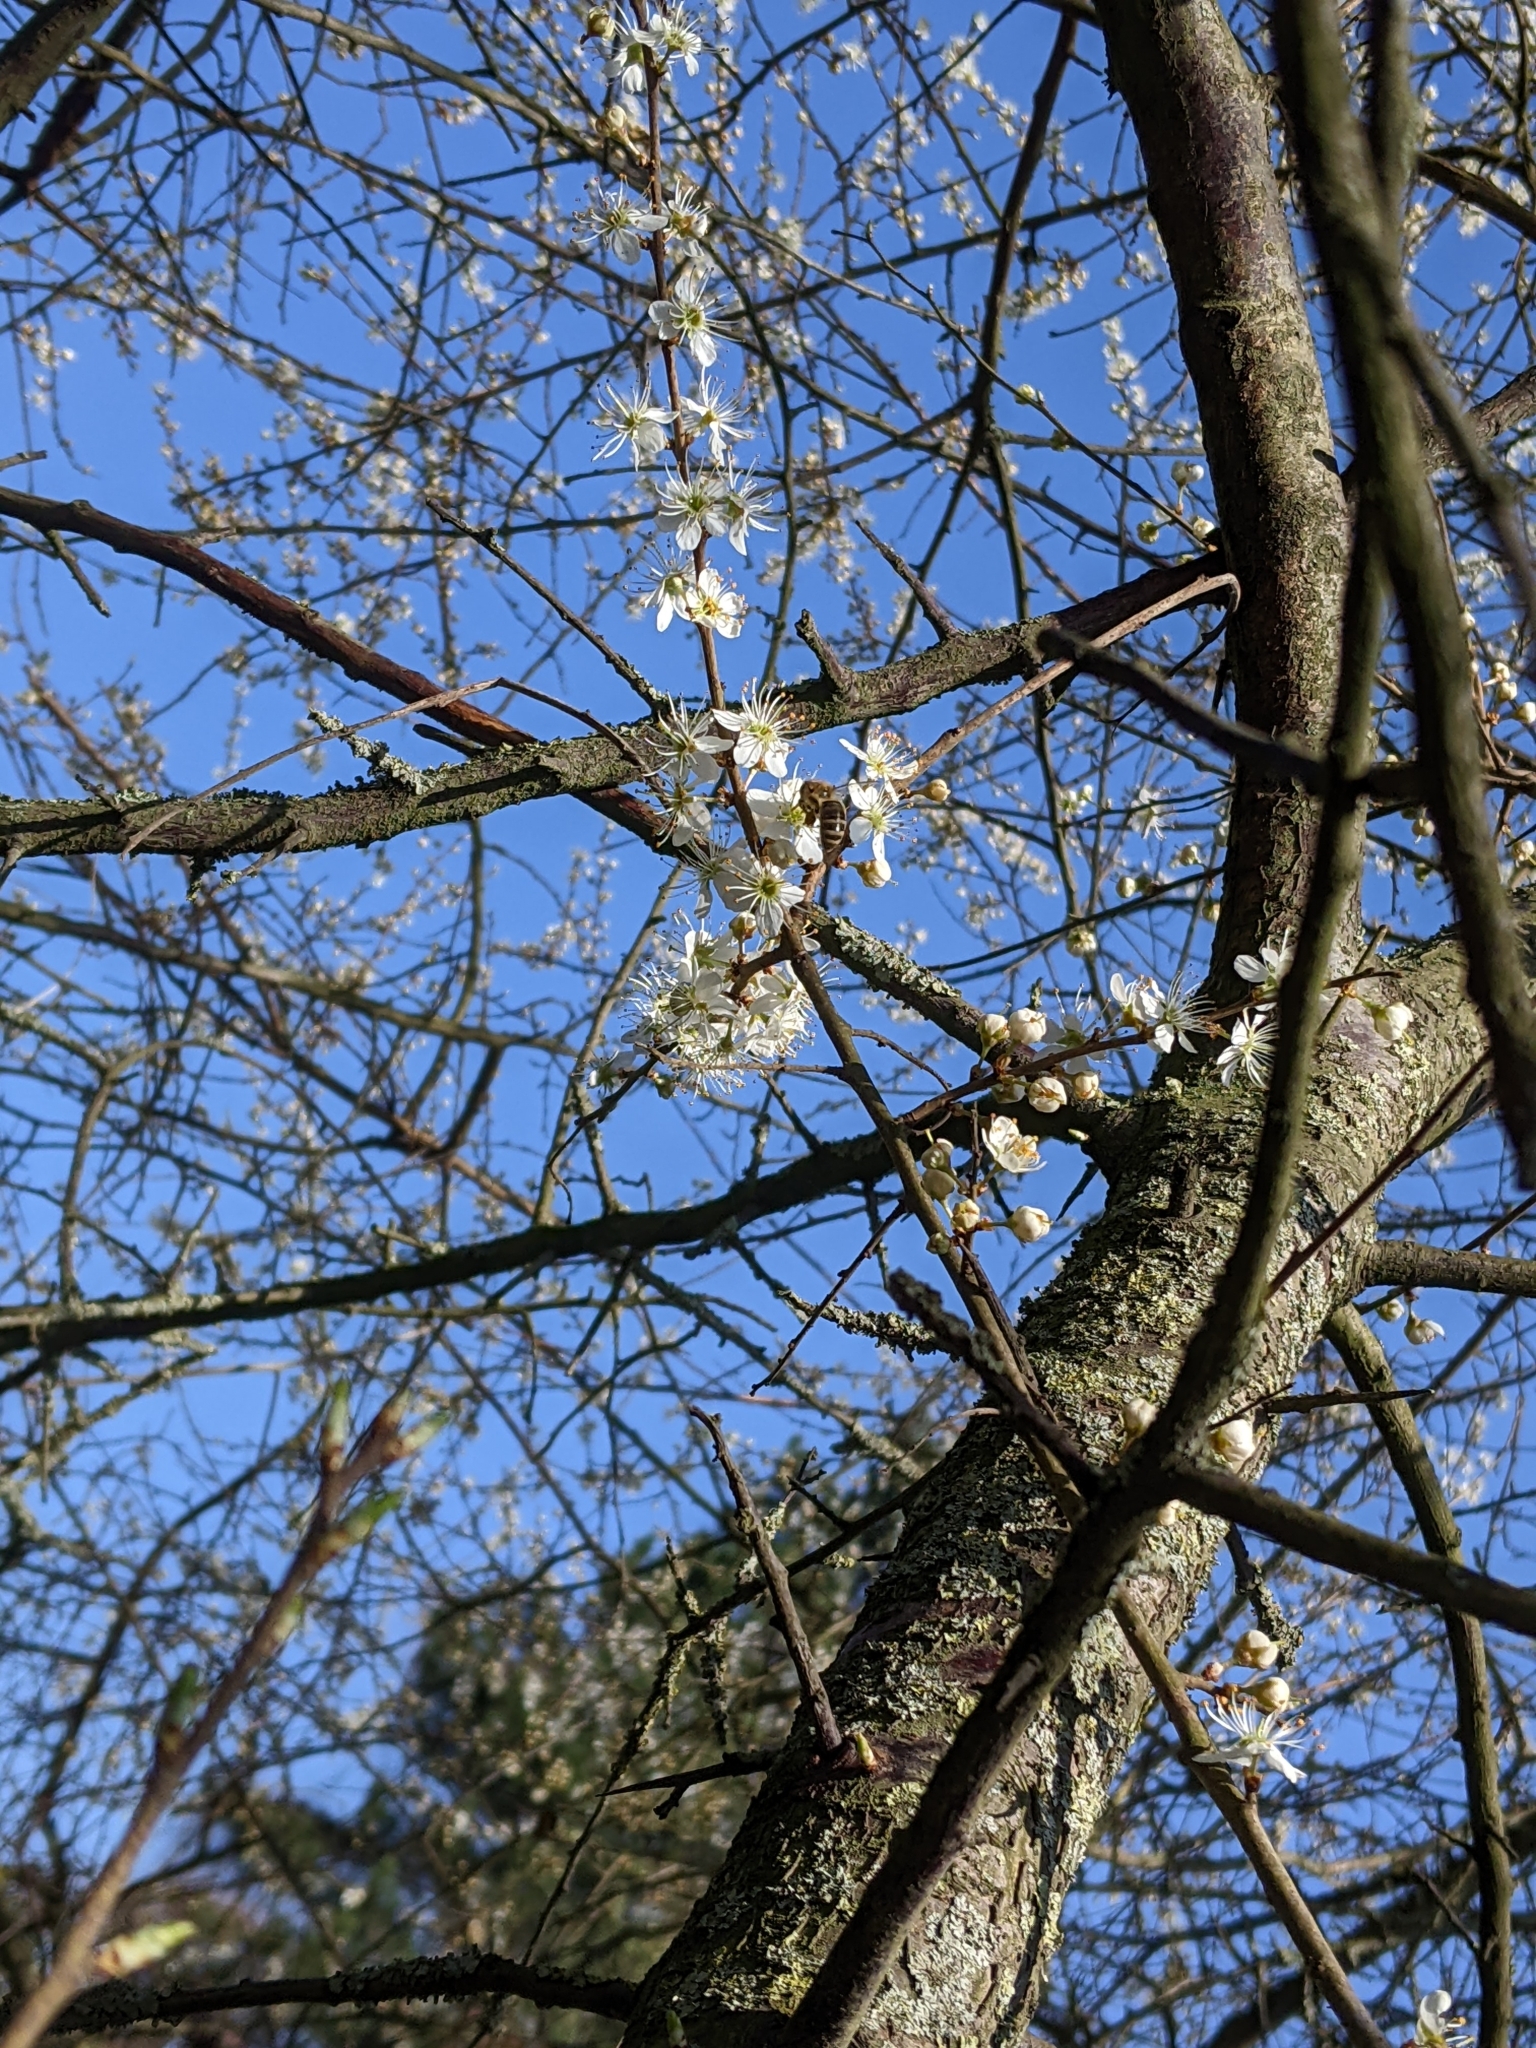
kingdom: Plantae
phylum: Tracheophyta
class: Magnoliopsida
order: Rosales
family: Rosaceae
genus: Prunus
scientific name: Prunus spinosa
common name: Blackthorn
